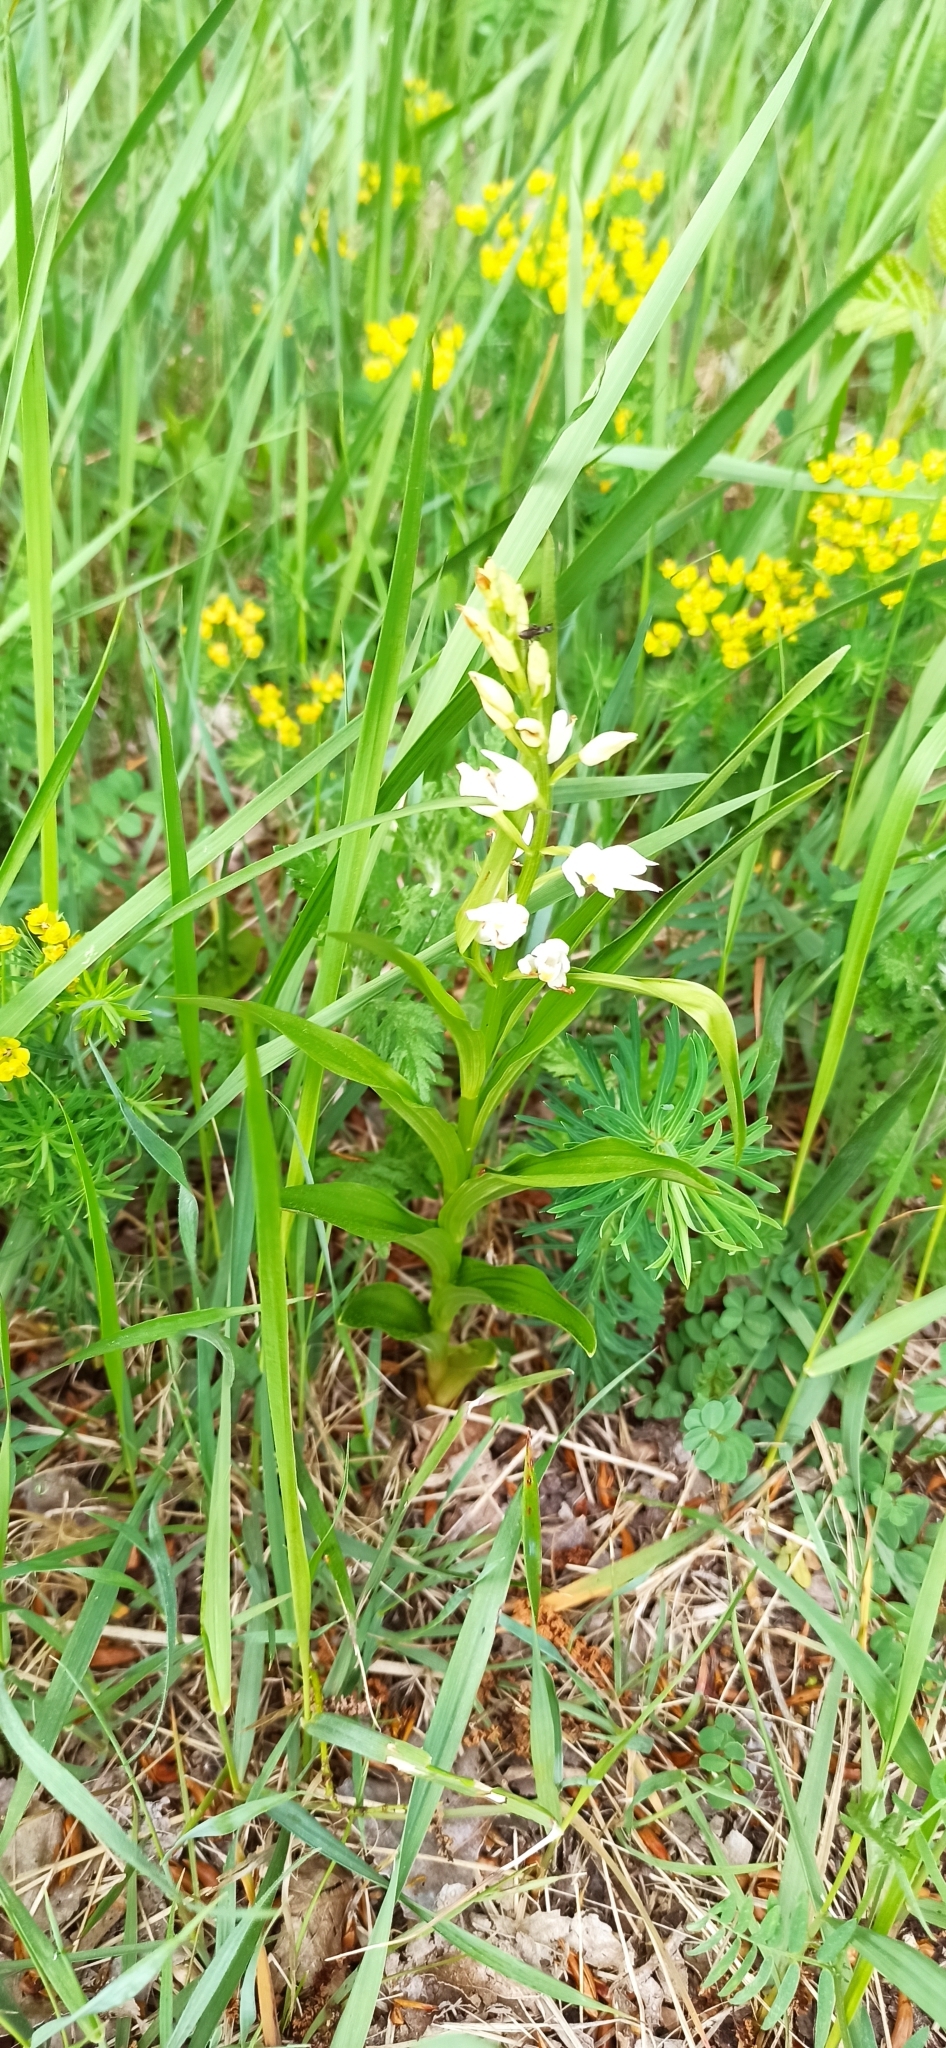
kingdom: Plantae
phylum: Tracheophyta
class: Liliopsida
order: Asparagales
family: Orchidaceae
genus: Cephalanthera
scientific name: Cephalanthera longifolia
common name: Narrow-leaved helleborine
